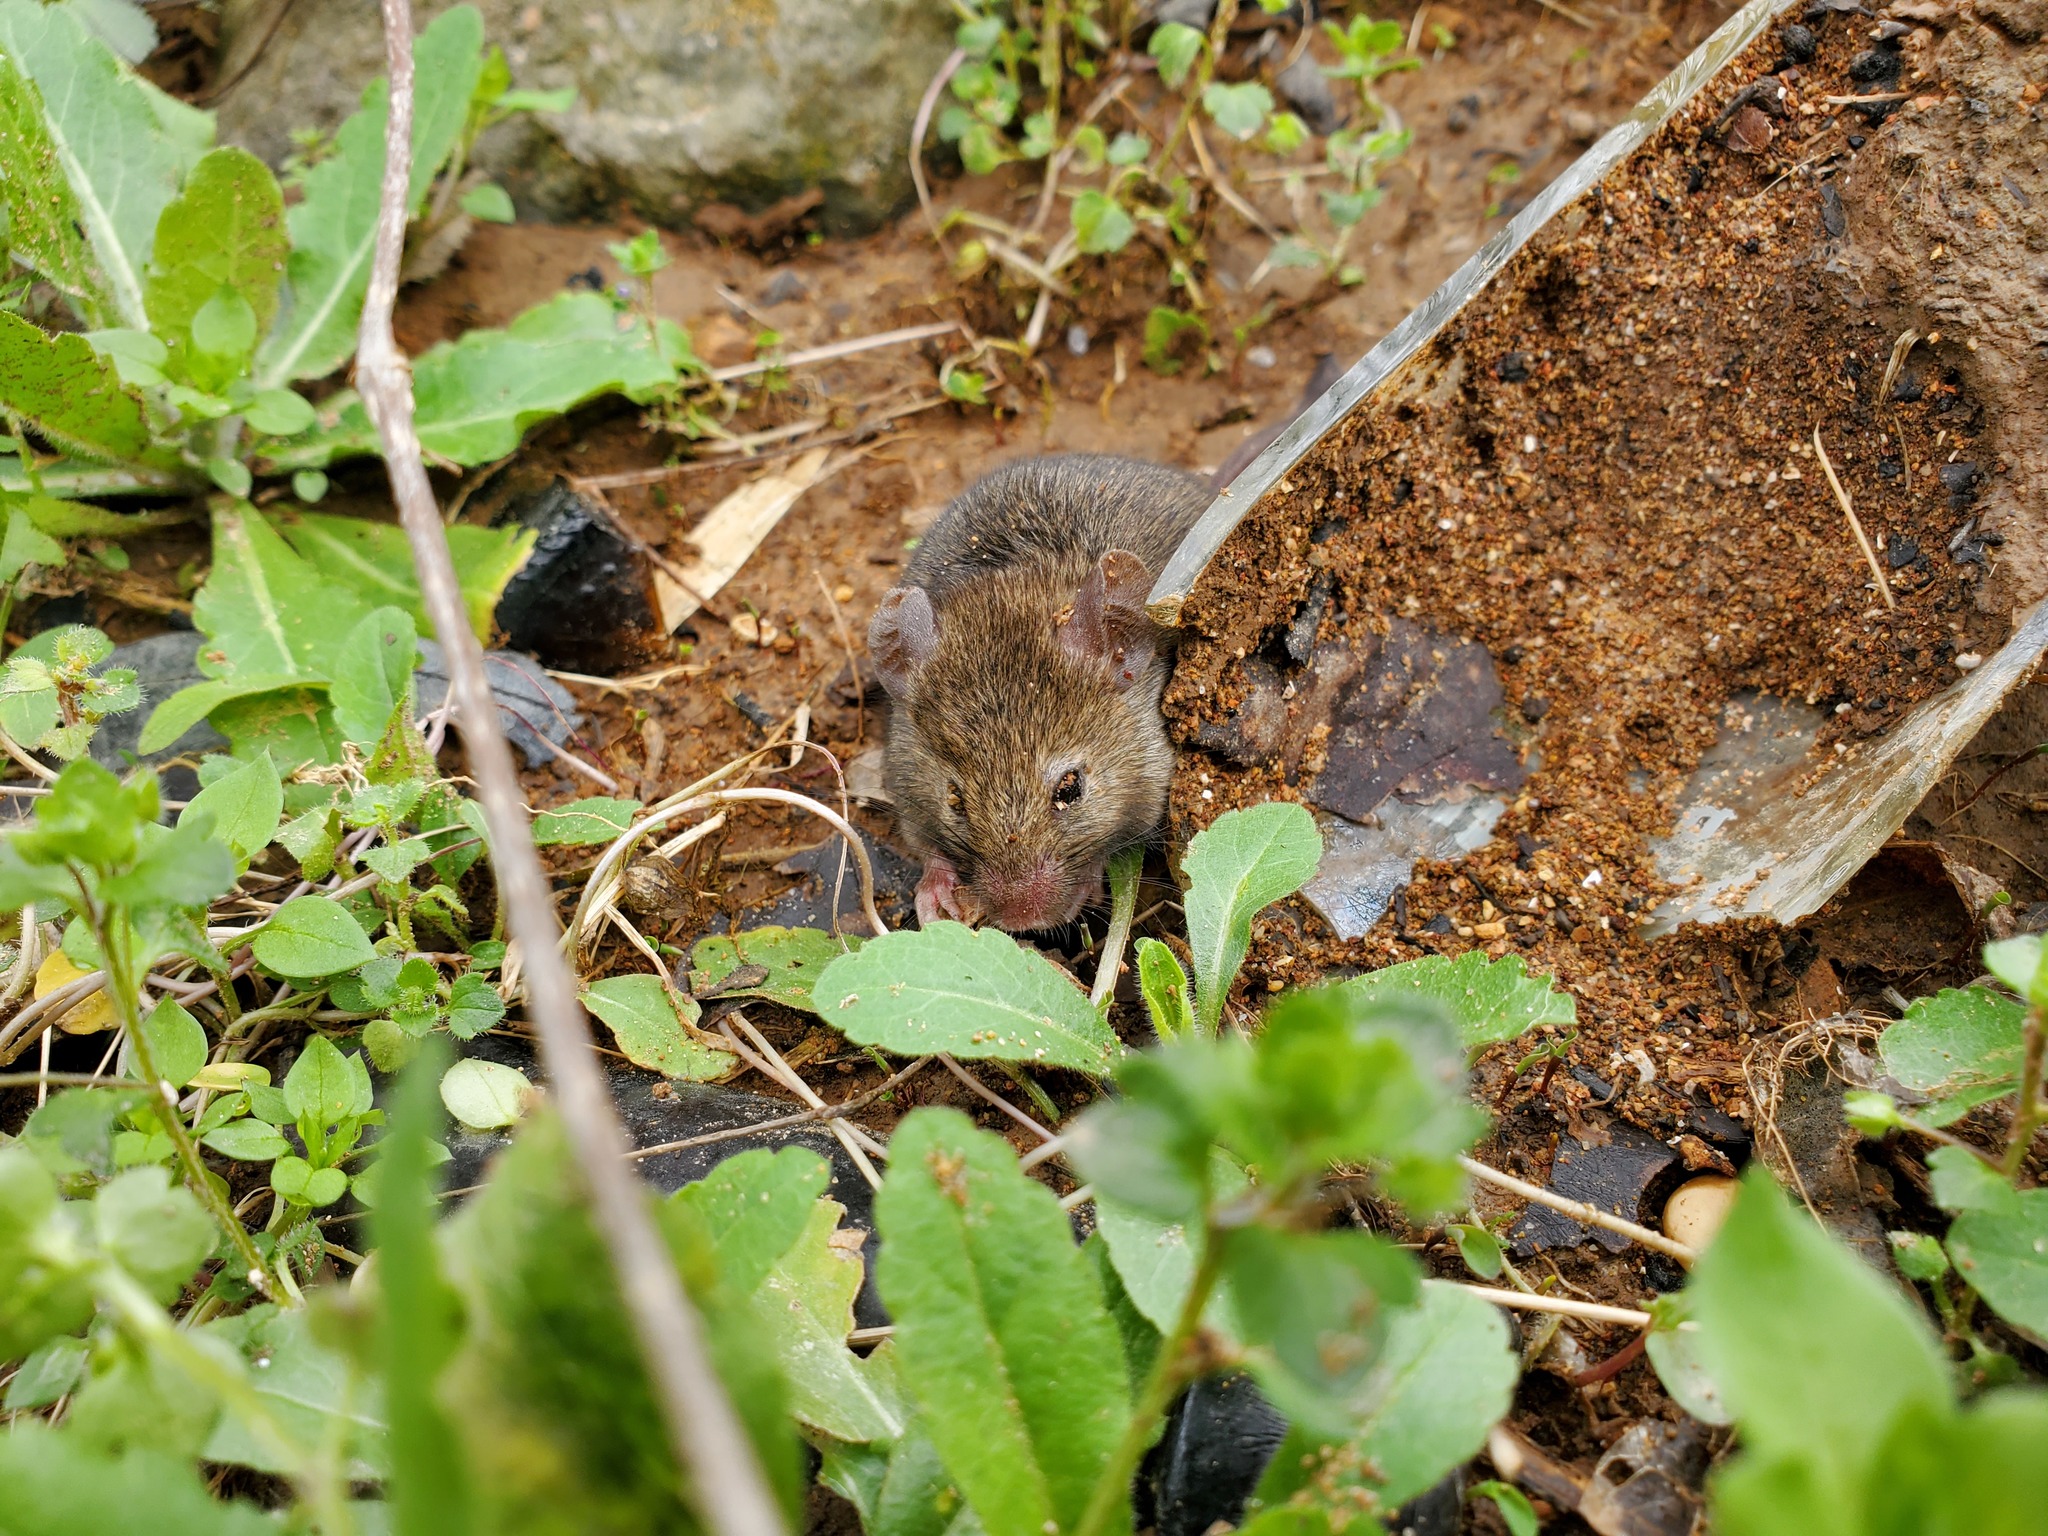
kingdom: Animalia
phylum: Chordata
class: Mammalia
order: Rodentia
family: Muridae
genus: Mus
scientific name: Mus musculus
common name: House mouse
